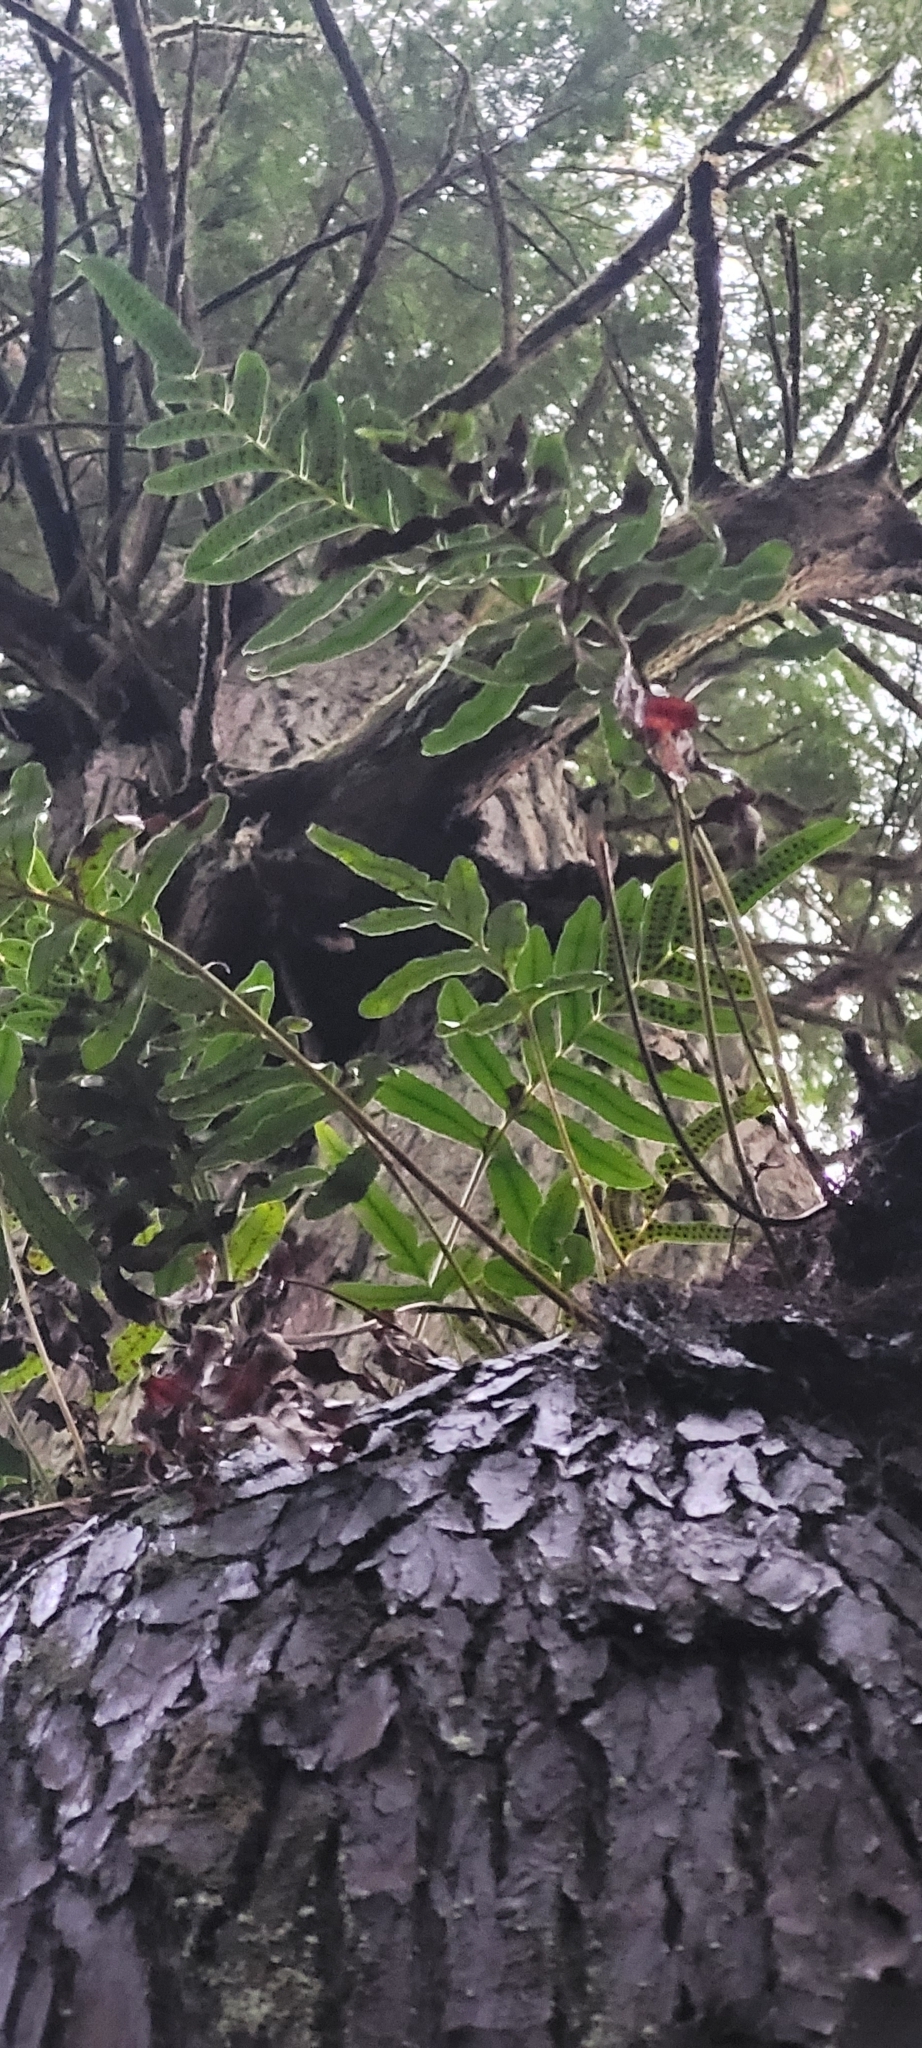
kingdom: Plantae
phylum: Tracheophyta
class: Polypodiopsida
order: Polypodiales
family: Polypodiaceae
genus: Polypodium
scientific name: Polypodium scouleri
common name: Scouler's polypody
